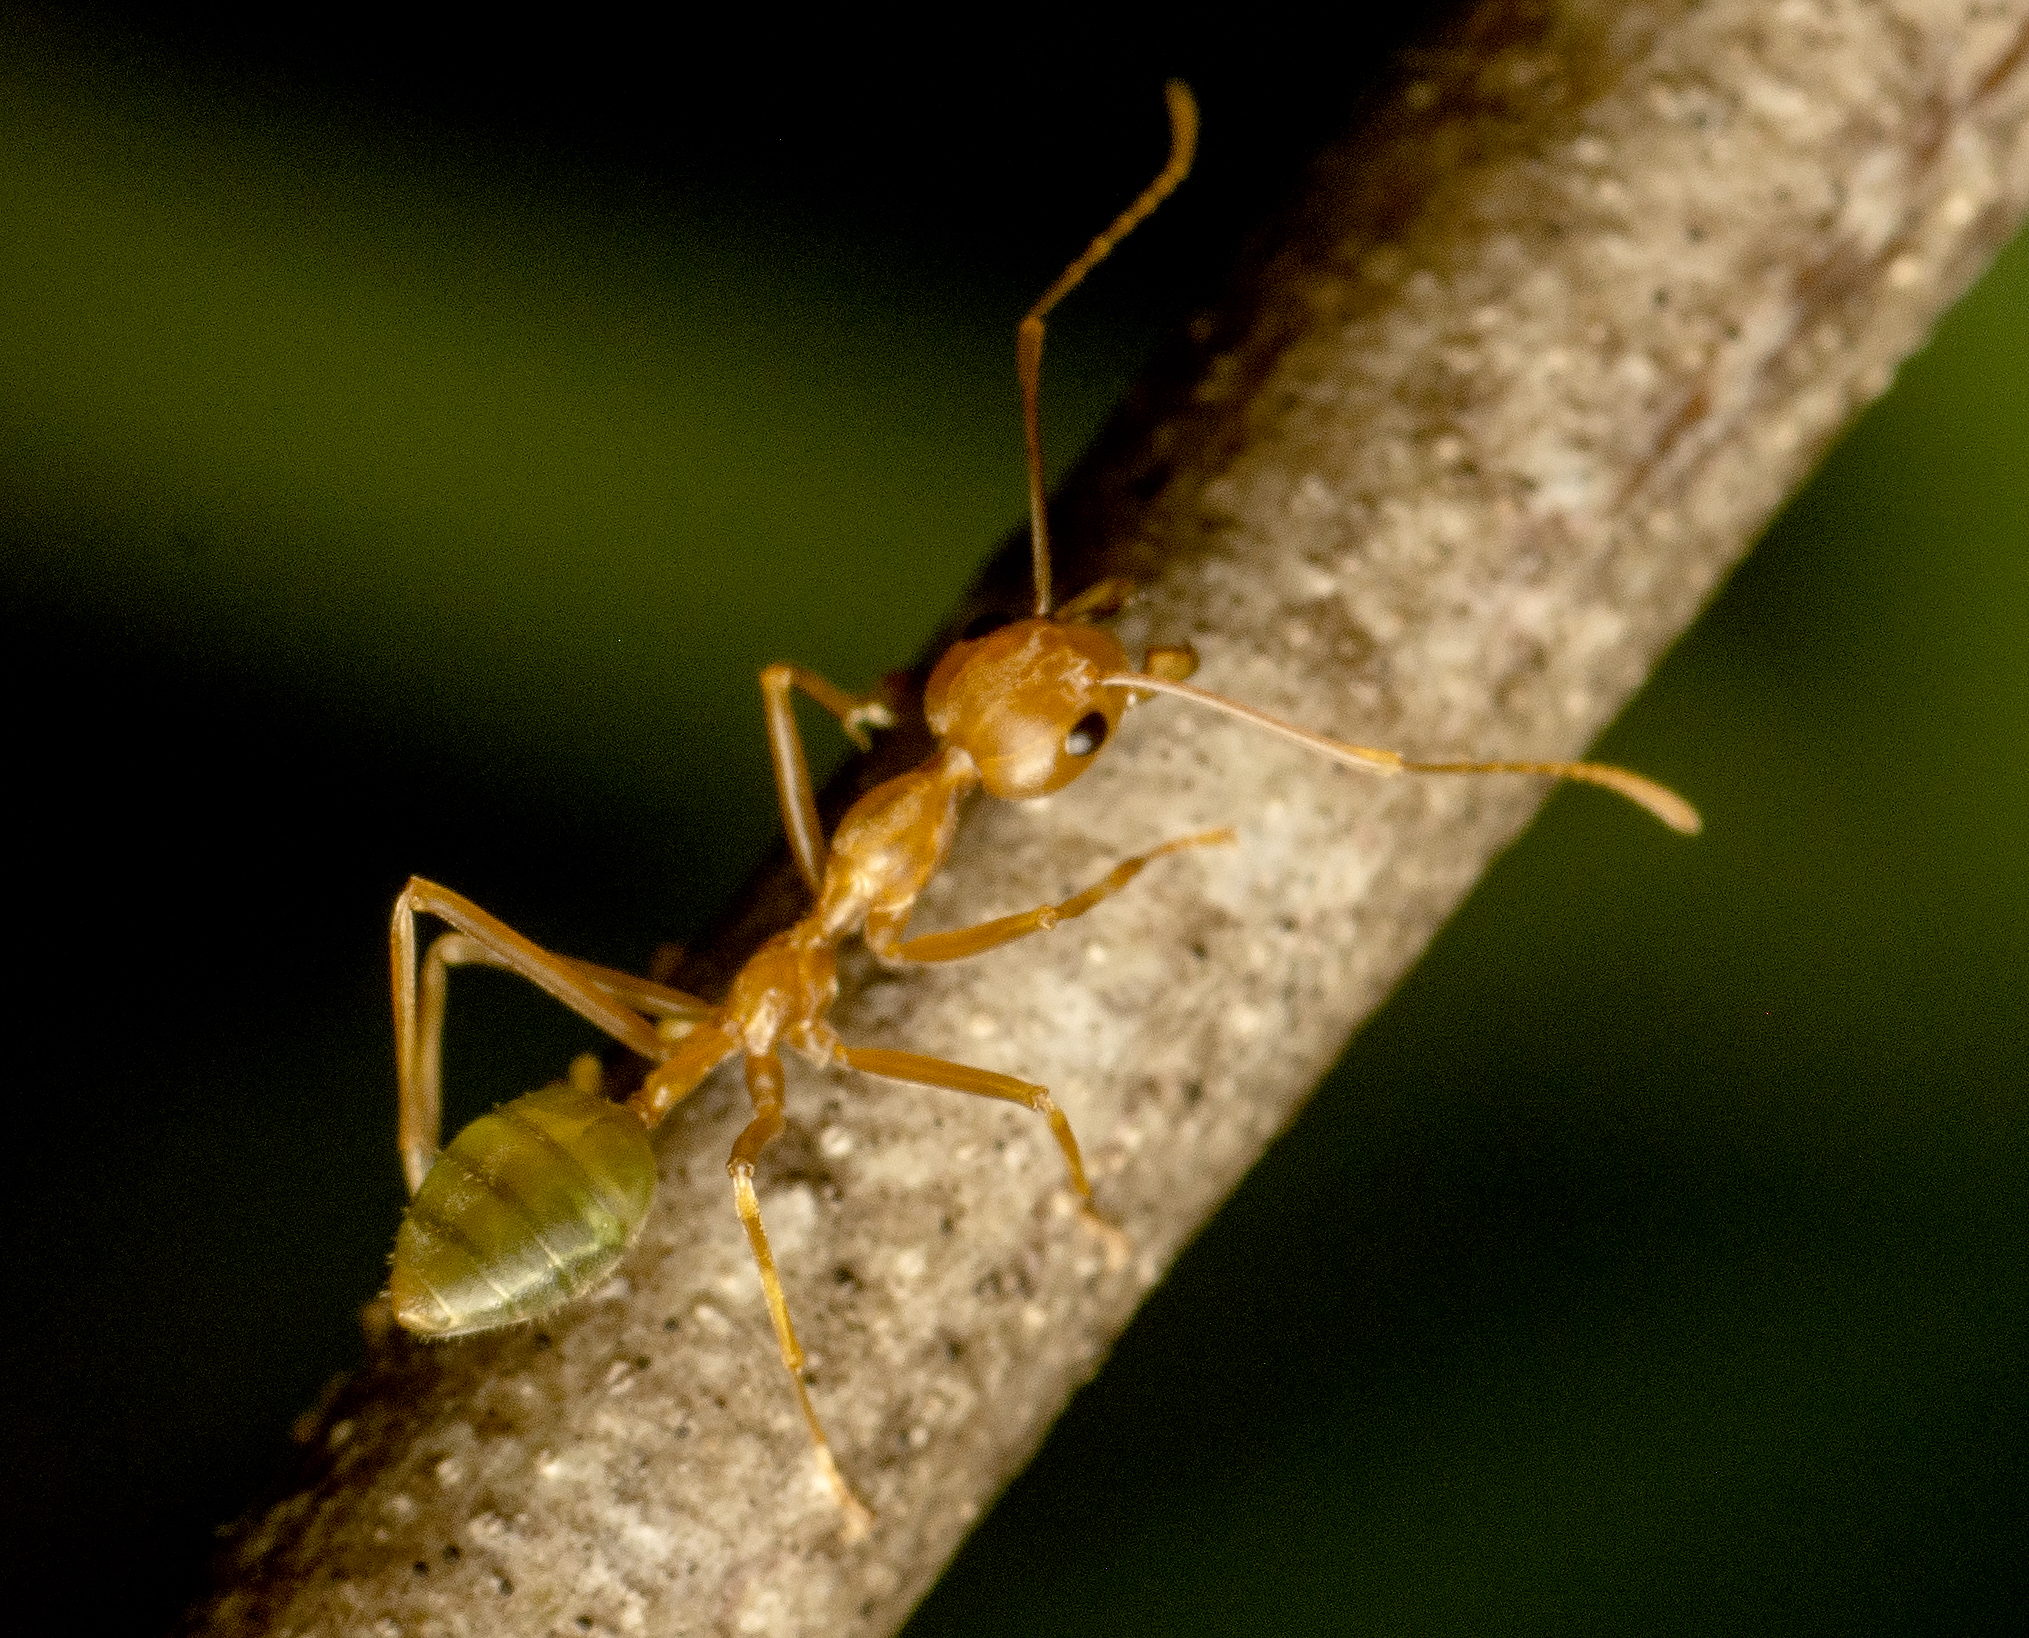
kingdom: Animalia
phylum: Arthropoda
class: Insecta
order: Hymenoptera
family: Formicidae
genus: Oecophylla
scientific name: Oecophylla smaragdina
